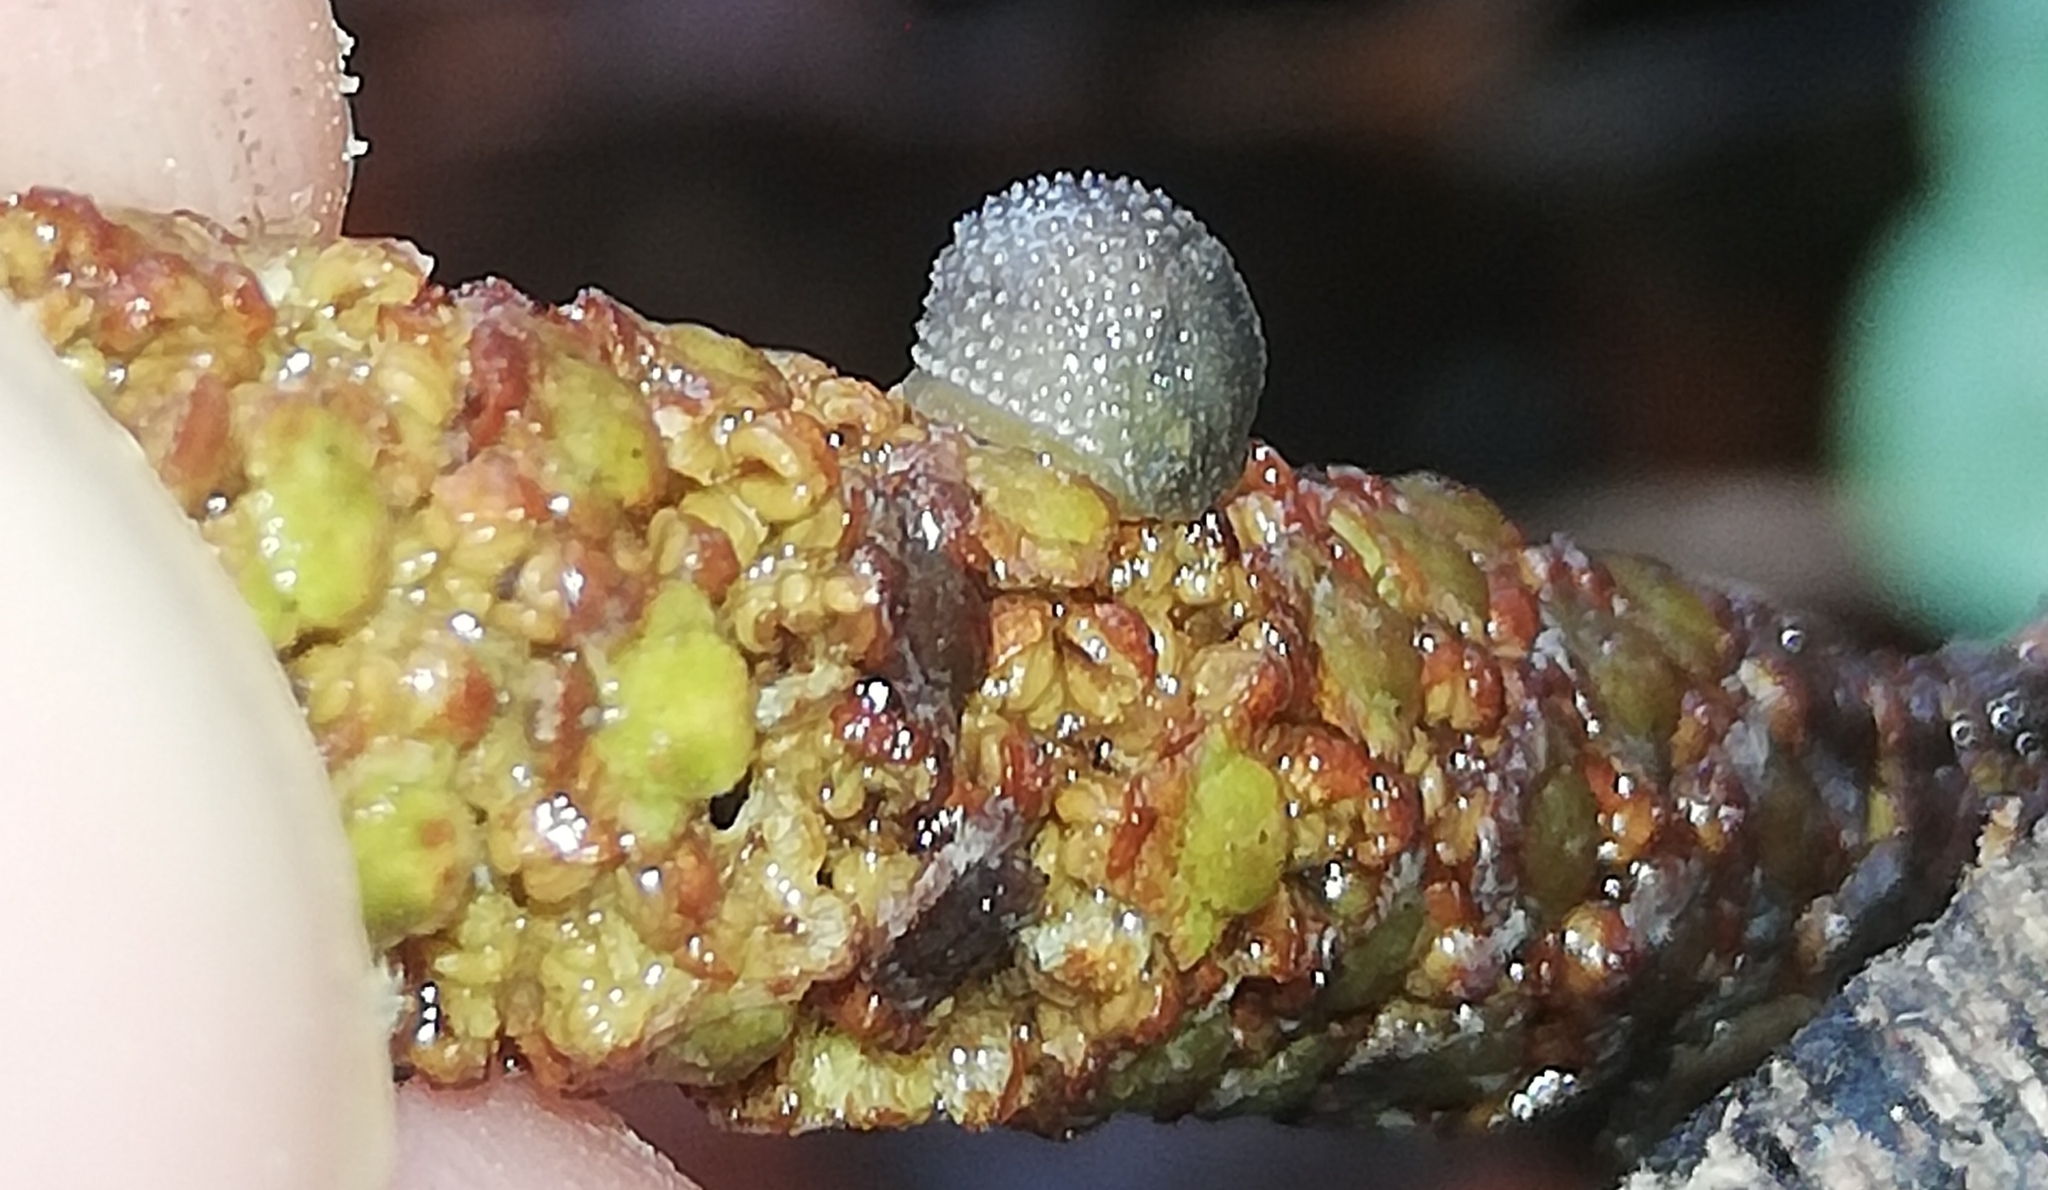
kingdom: Animalia
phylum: Mollusca
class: Gastropoda
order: Stylommatophora
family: Arionidae
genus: Arion
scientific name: Arion intermedius
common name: Hedgehog slug
